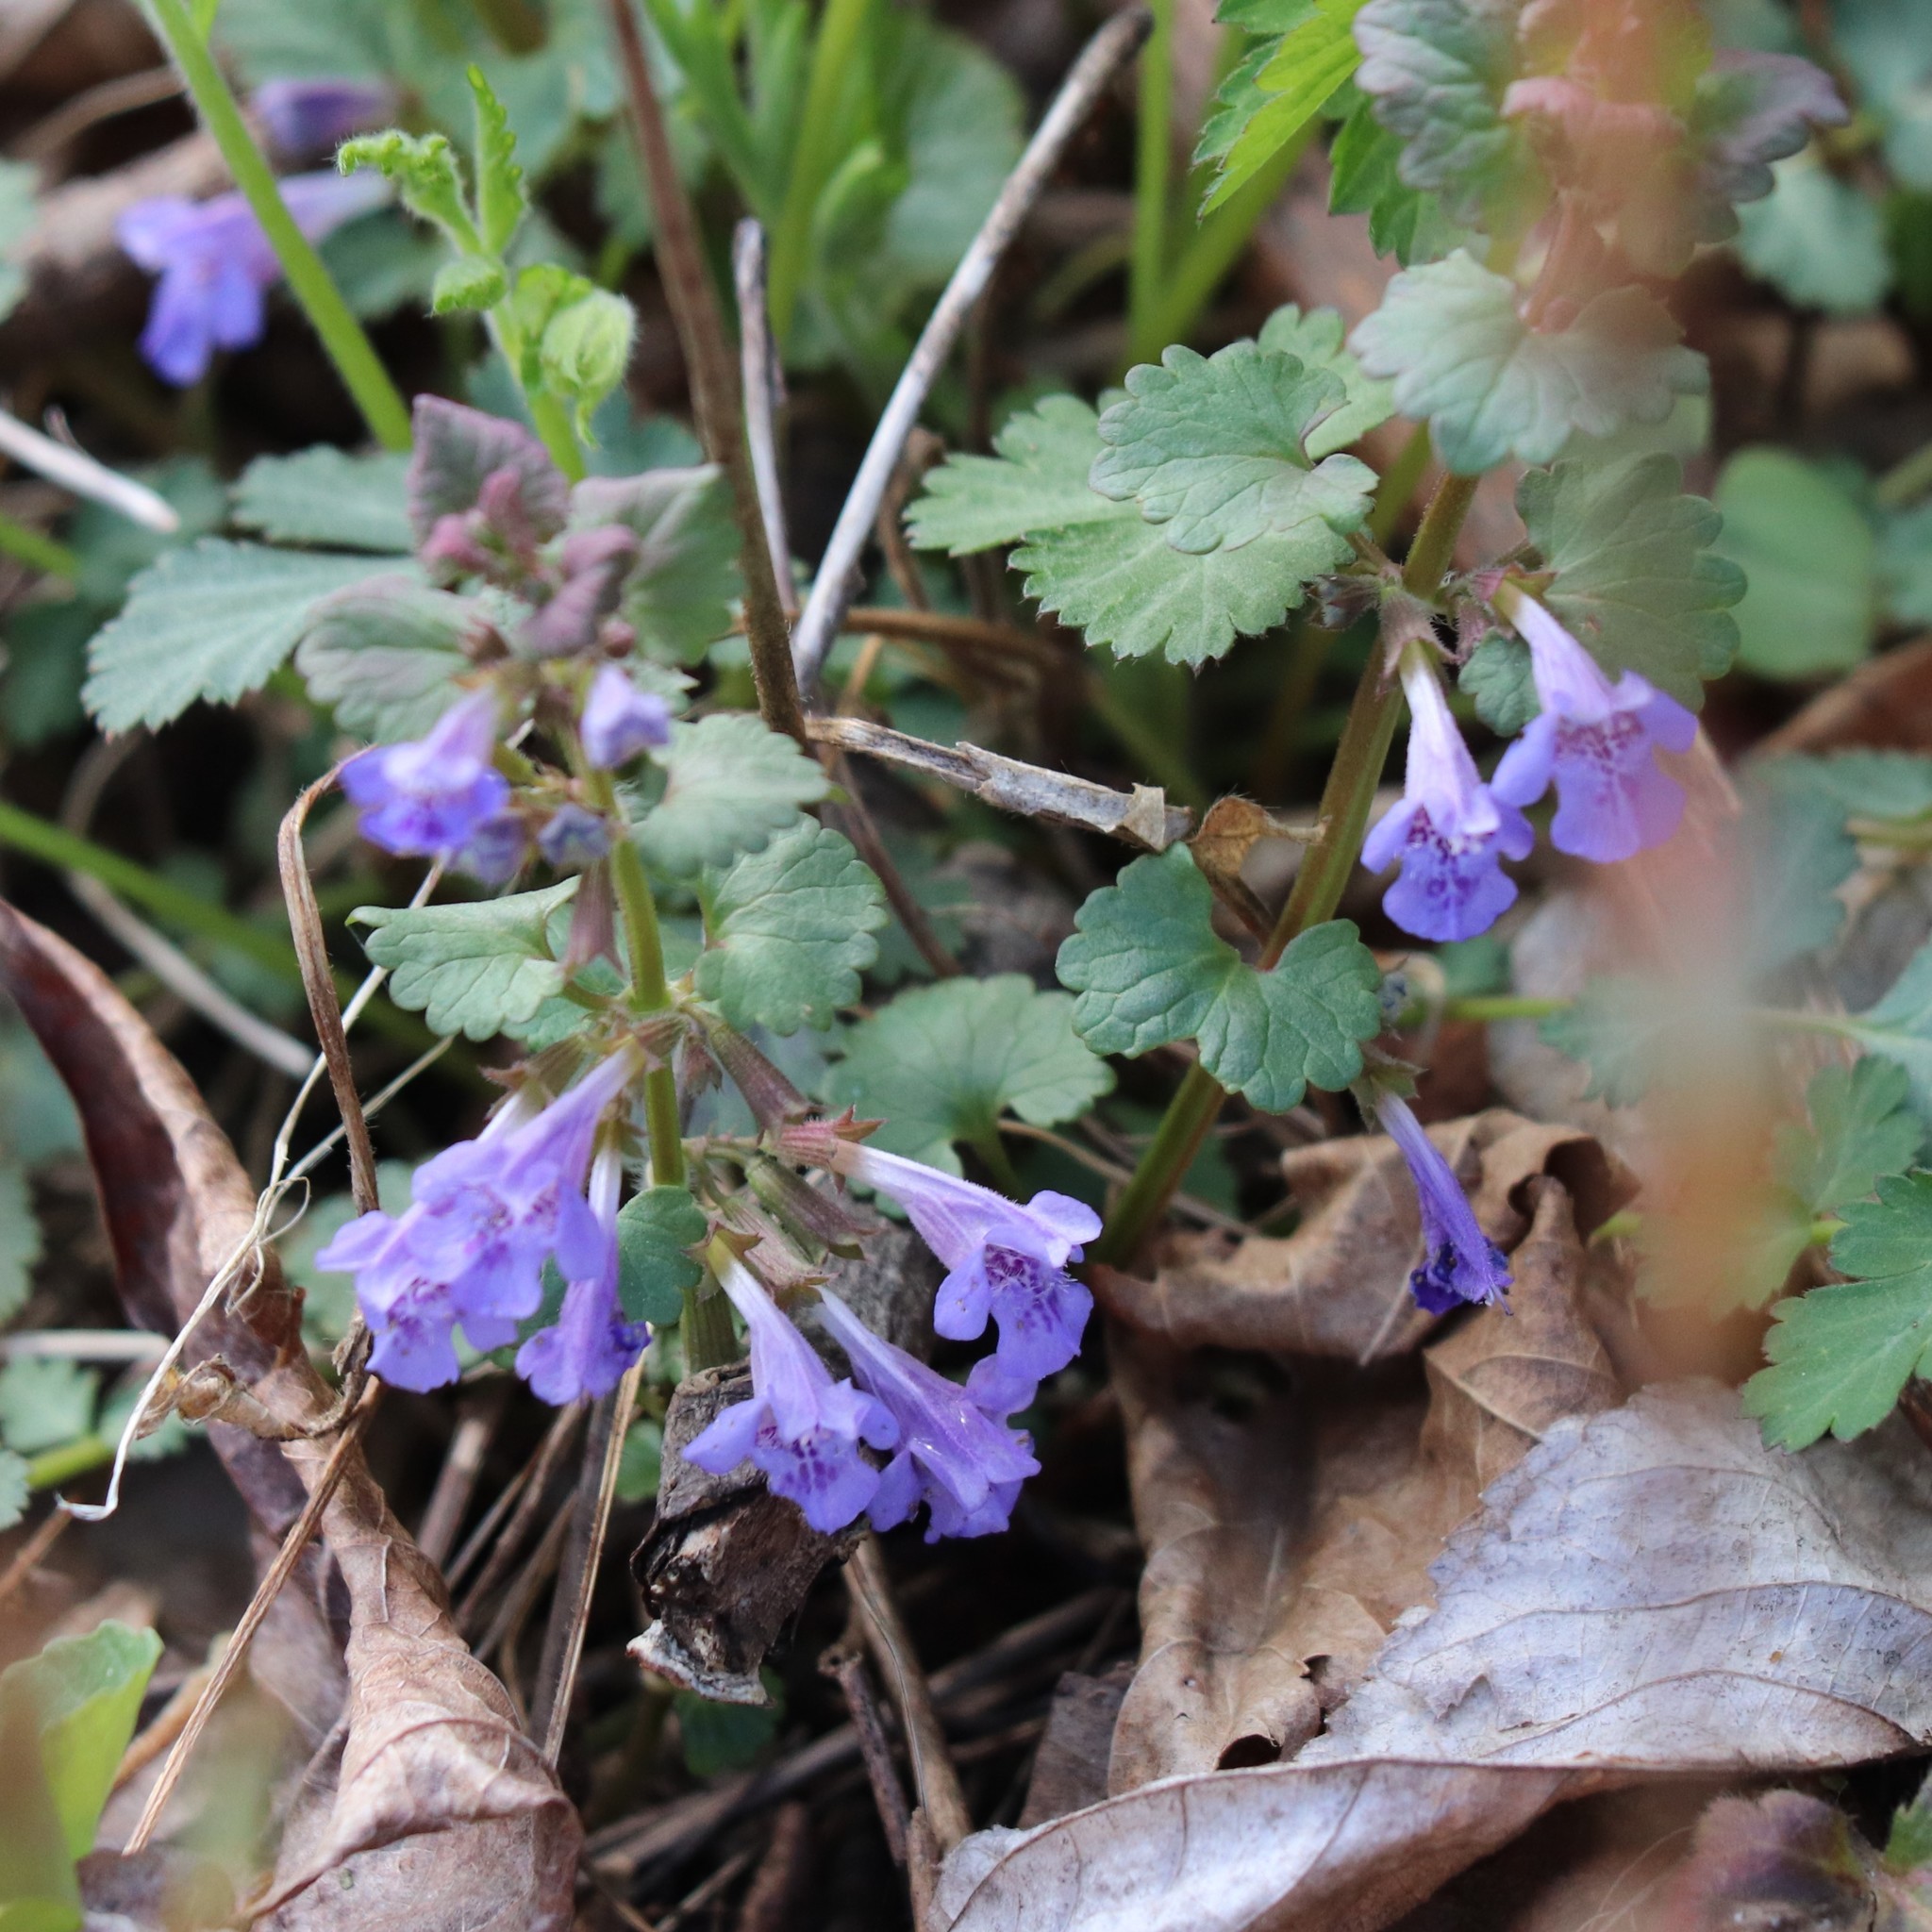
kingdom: Plantae
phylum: Tracheophyta
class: Magnoliopsida
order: Lamiales
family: Lamiaceae
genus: Glechoma
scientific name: Glechoma hederacea
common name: Ground ivy
